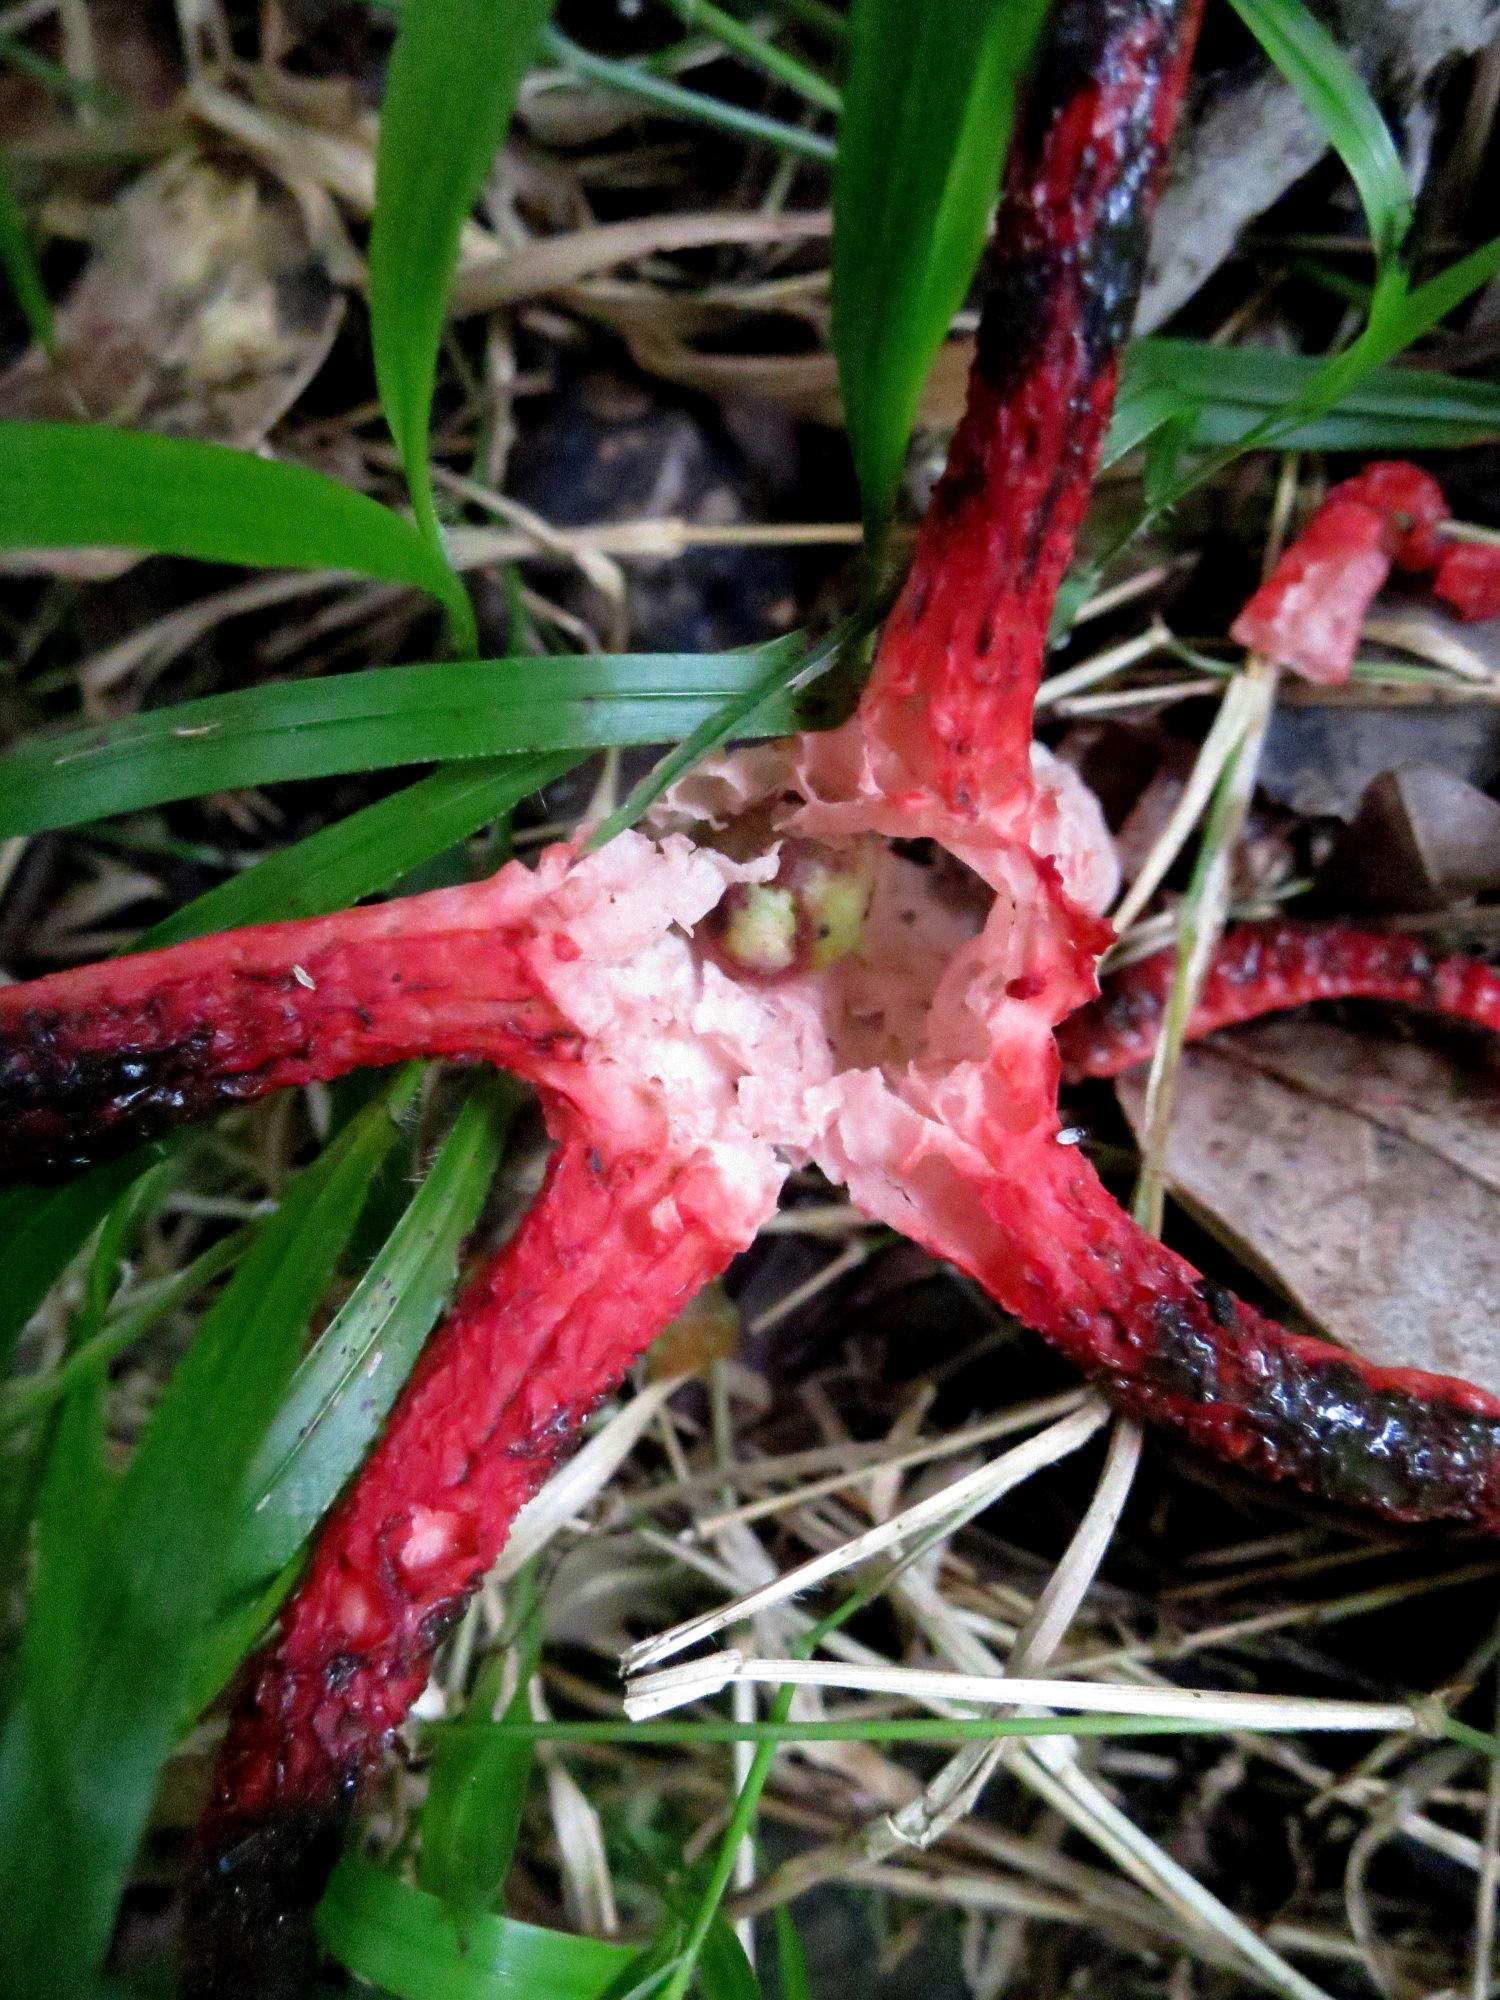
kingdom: Fungi
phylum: Basidiomycota
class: Agaricomycetes
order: Phallales
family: Phallaceae
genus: Clathrus
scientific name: Clathrus archeri
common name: Devil's fingers
